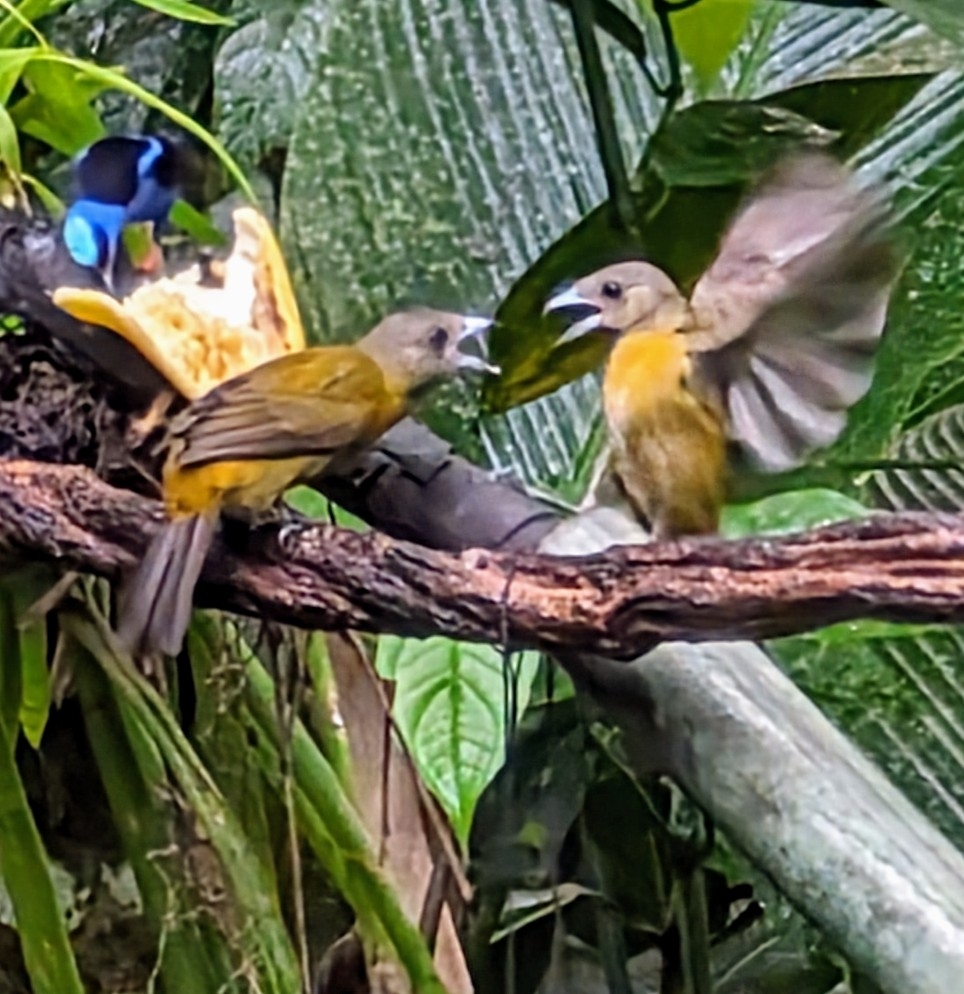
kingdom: Animalia
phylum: Chordata
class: Aves
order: Passeriformes
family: Thraupidae
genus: Ramphocelus
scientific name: Ramphocelus passerinii
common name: Passerini's tanager
